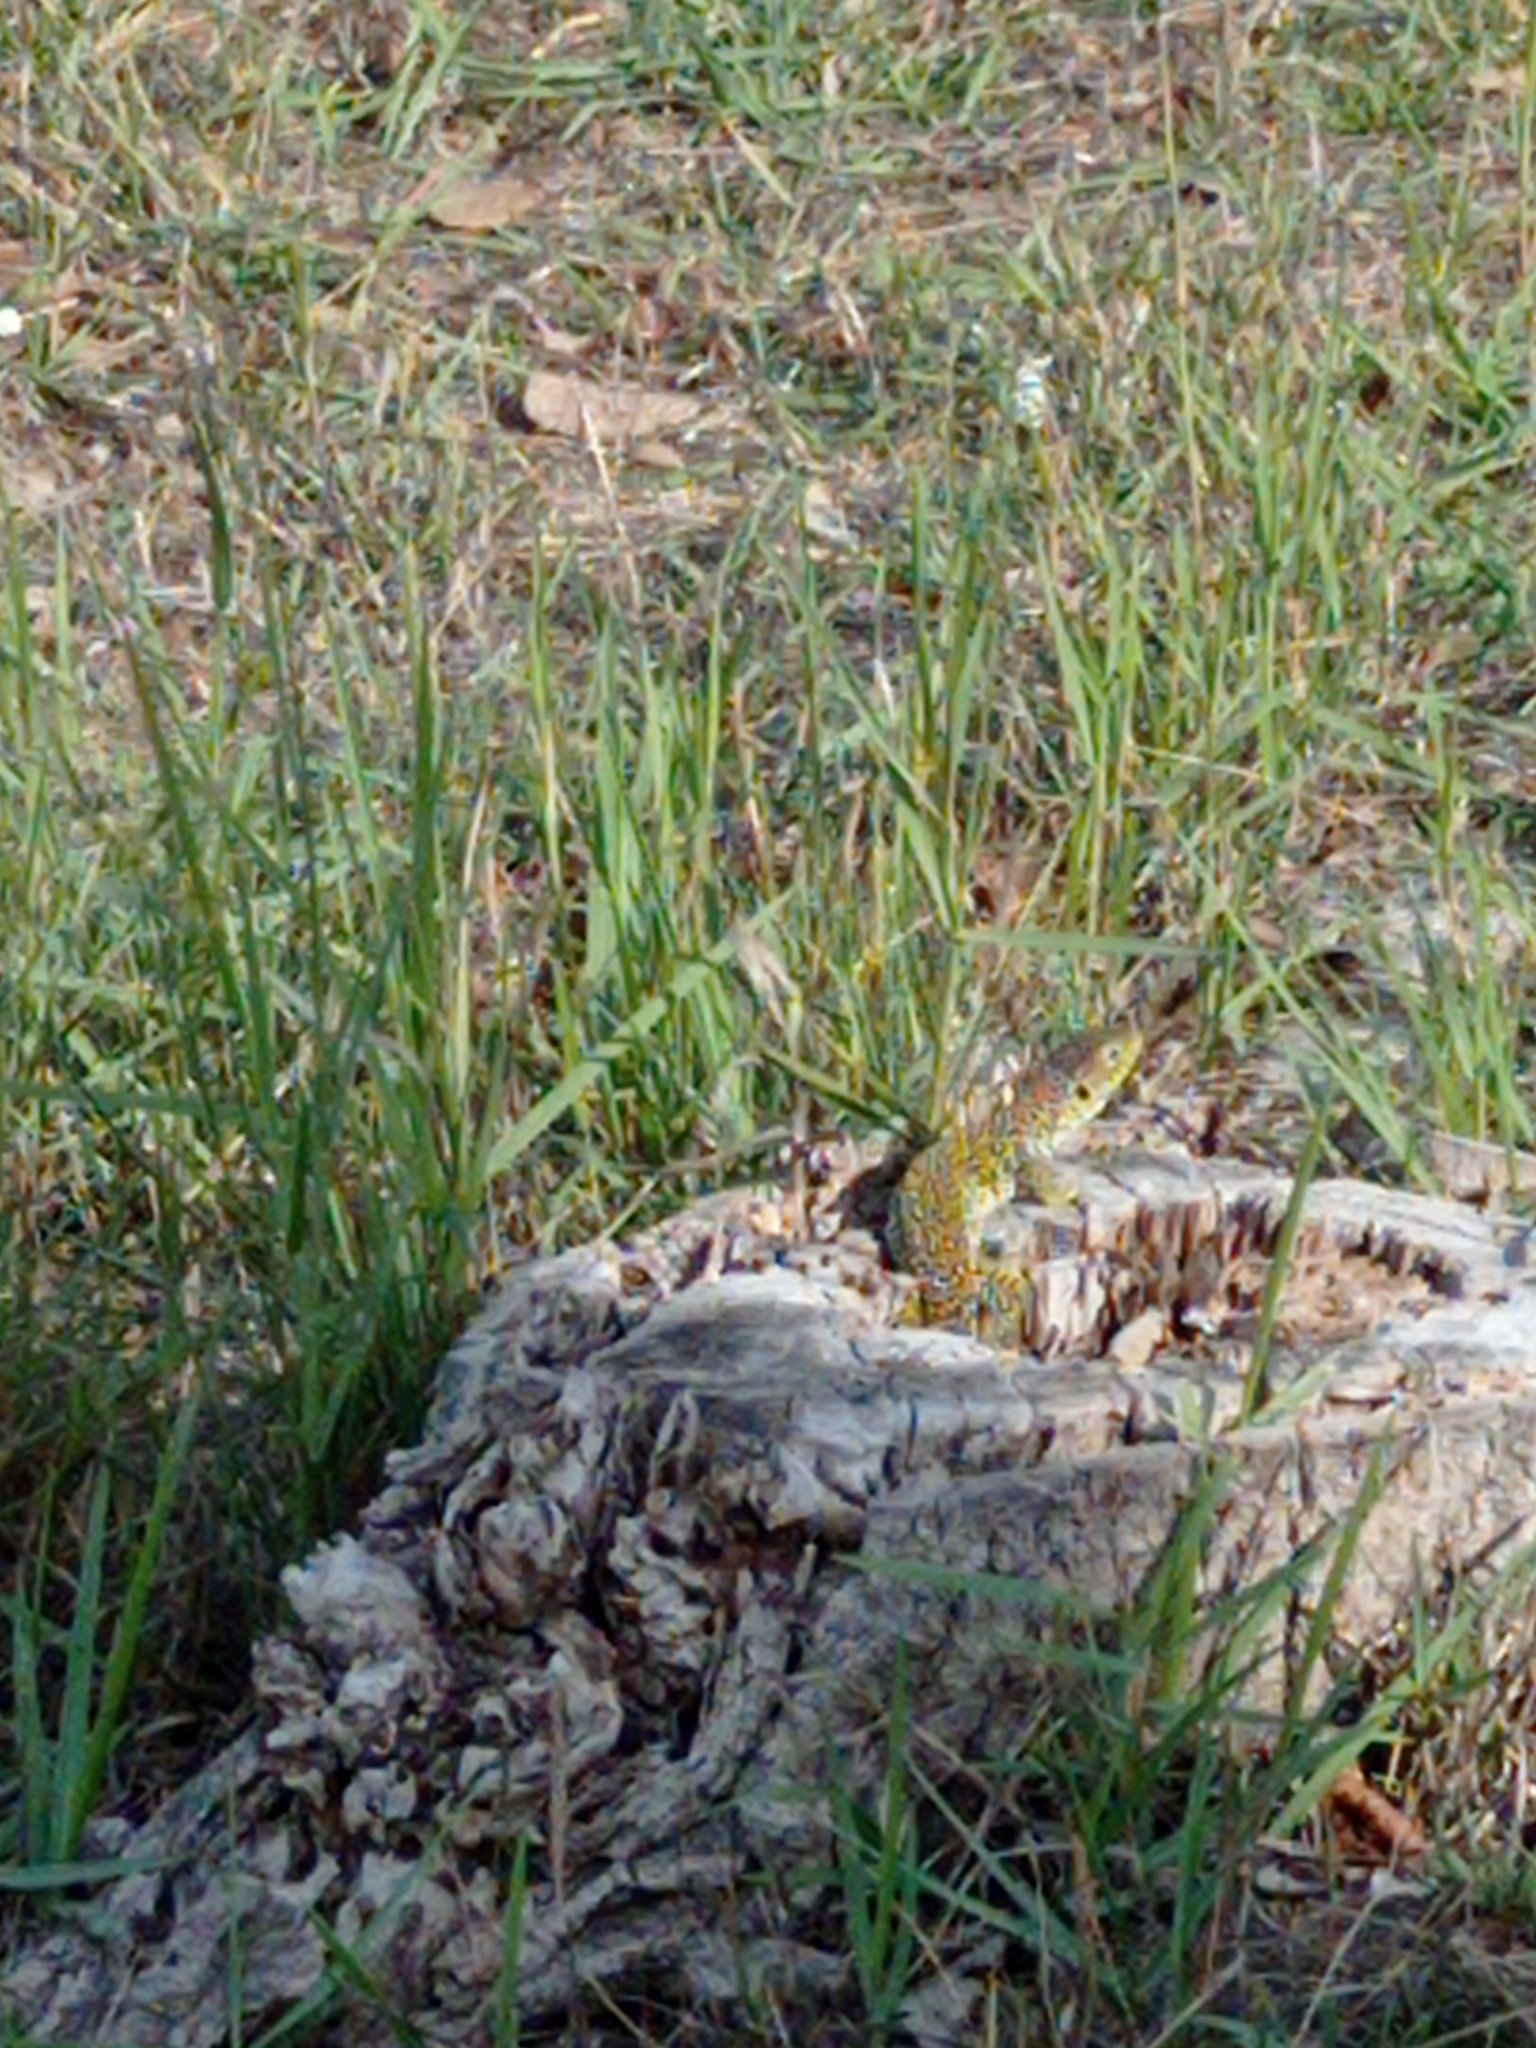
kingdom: Animalia
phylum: Chordata
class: Squamata
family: Lacertidae
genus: Timon
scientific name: Timon lepidus
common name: Ocellated lizard
